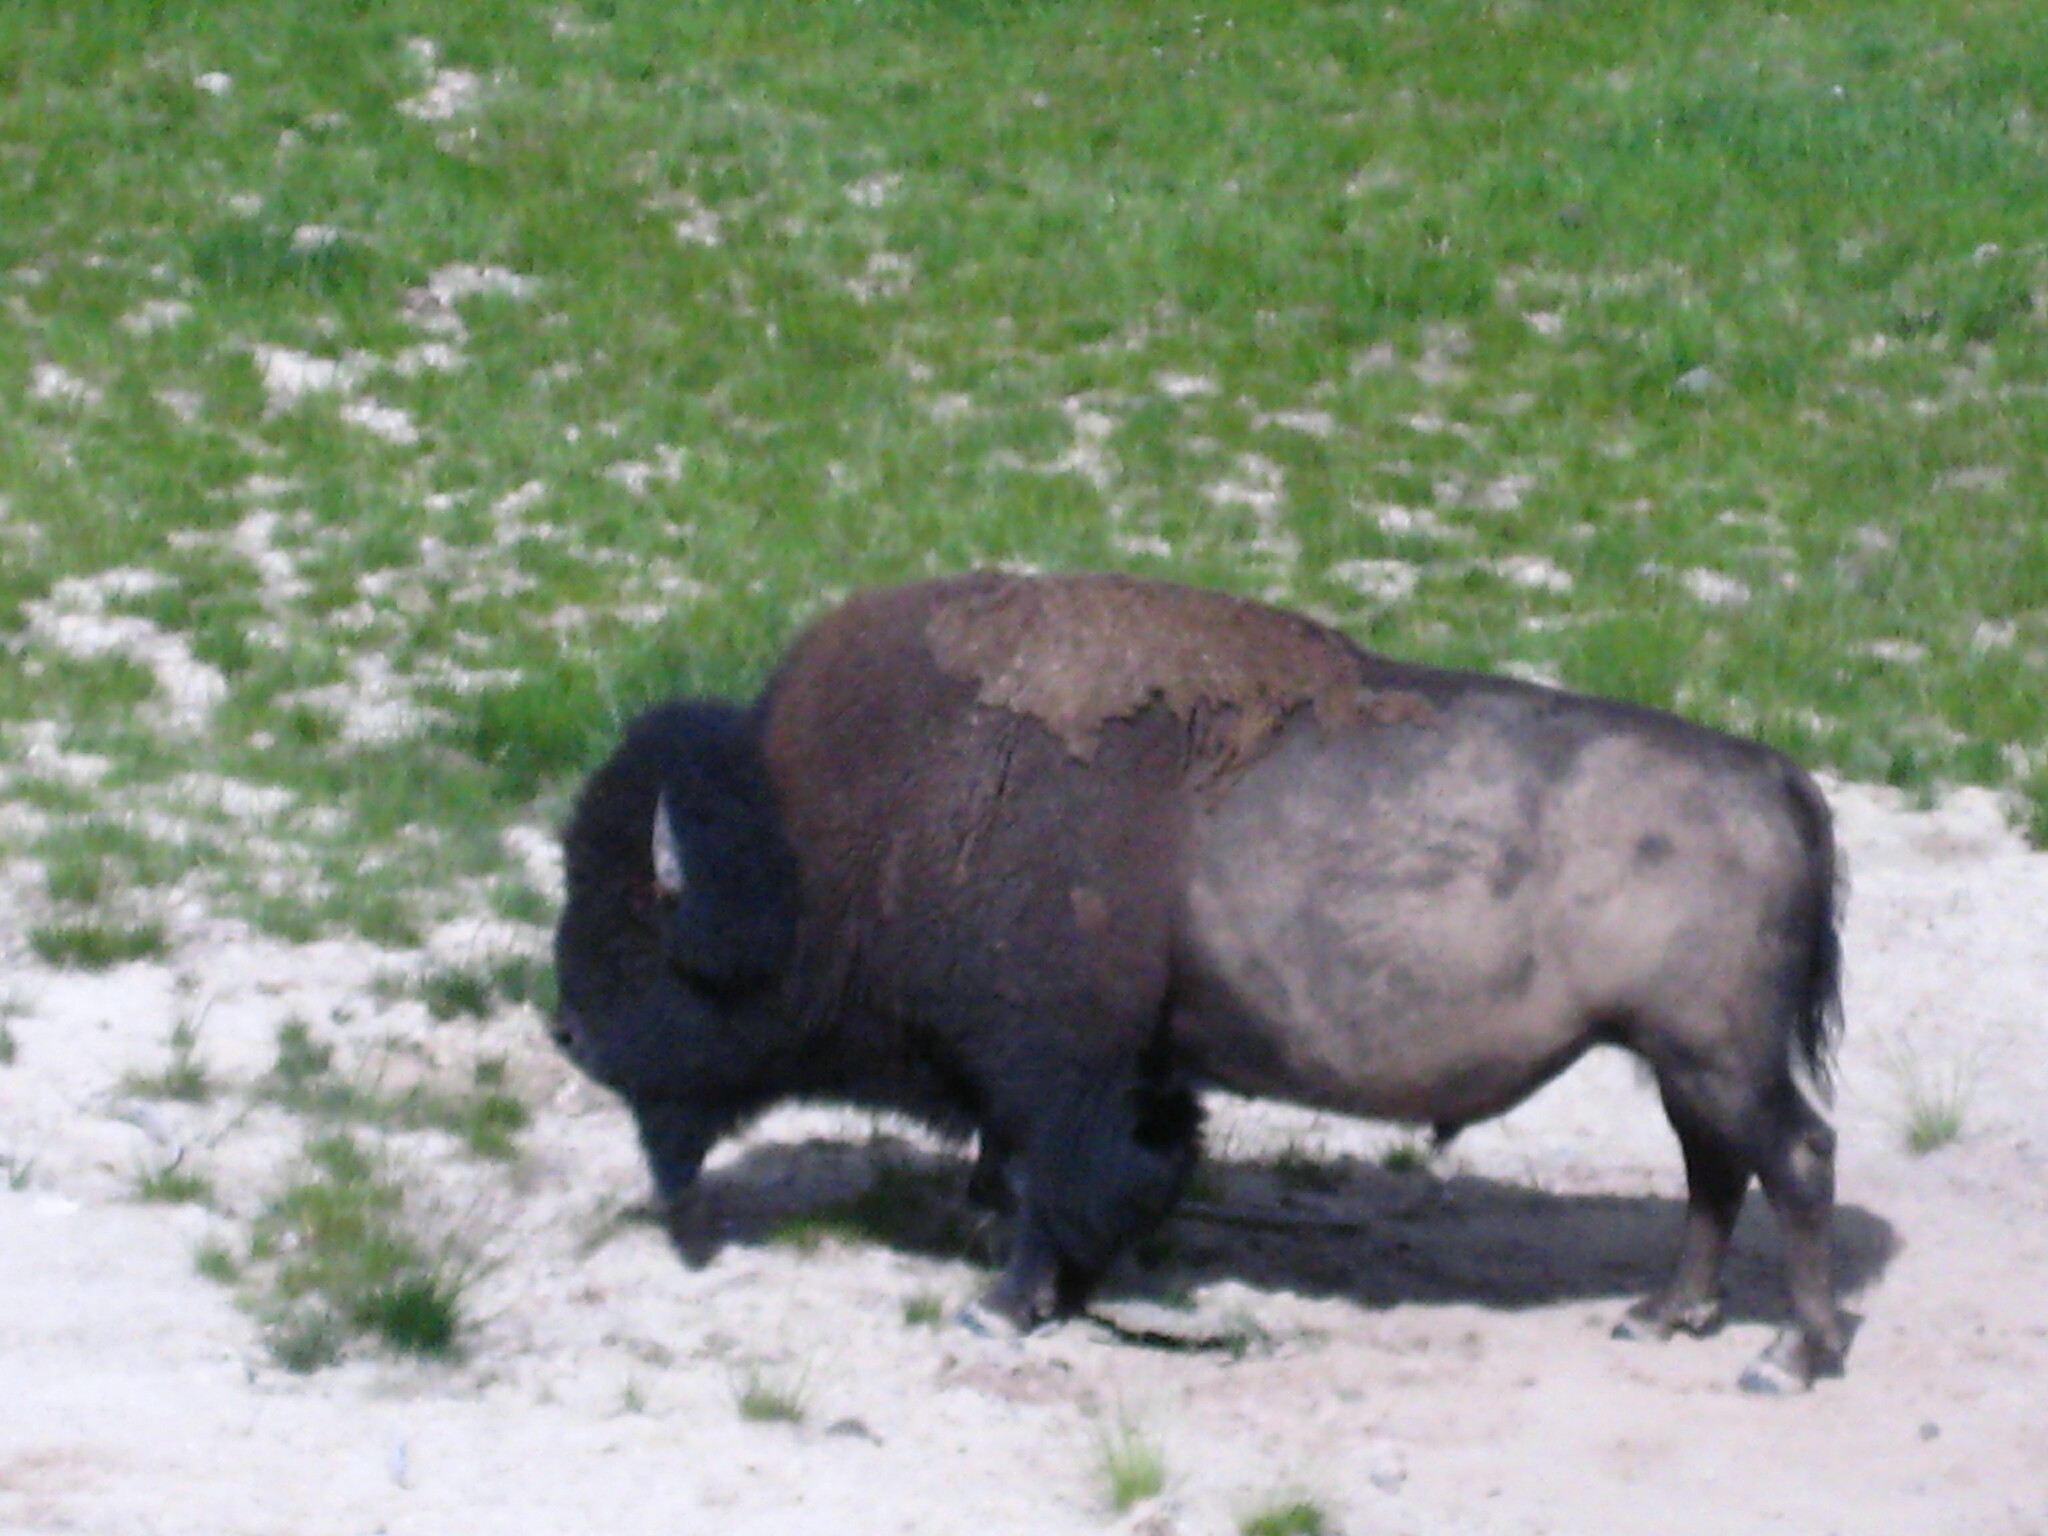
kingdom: Animalia
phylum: Chordata
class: Mammalia
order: Artiodactyla
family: Bovidae
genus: Bison
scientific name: Bison bison
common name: American bison
